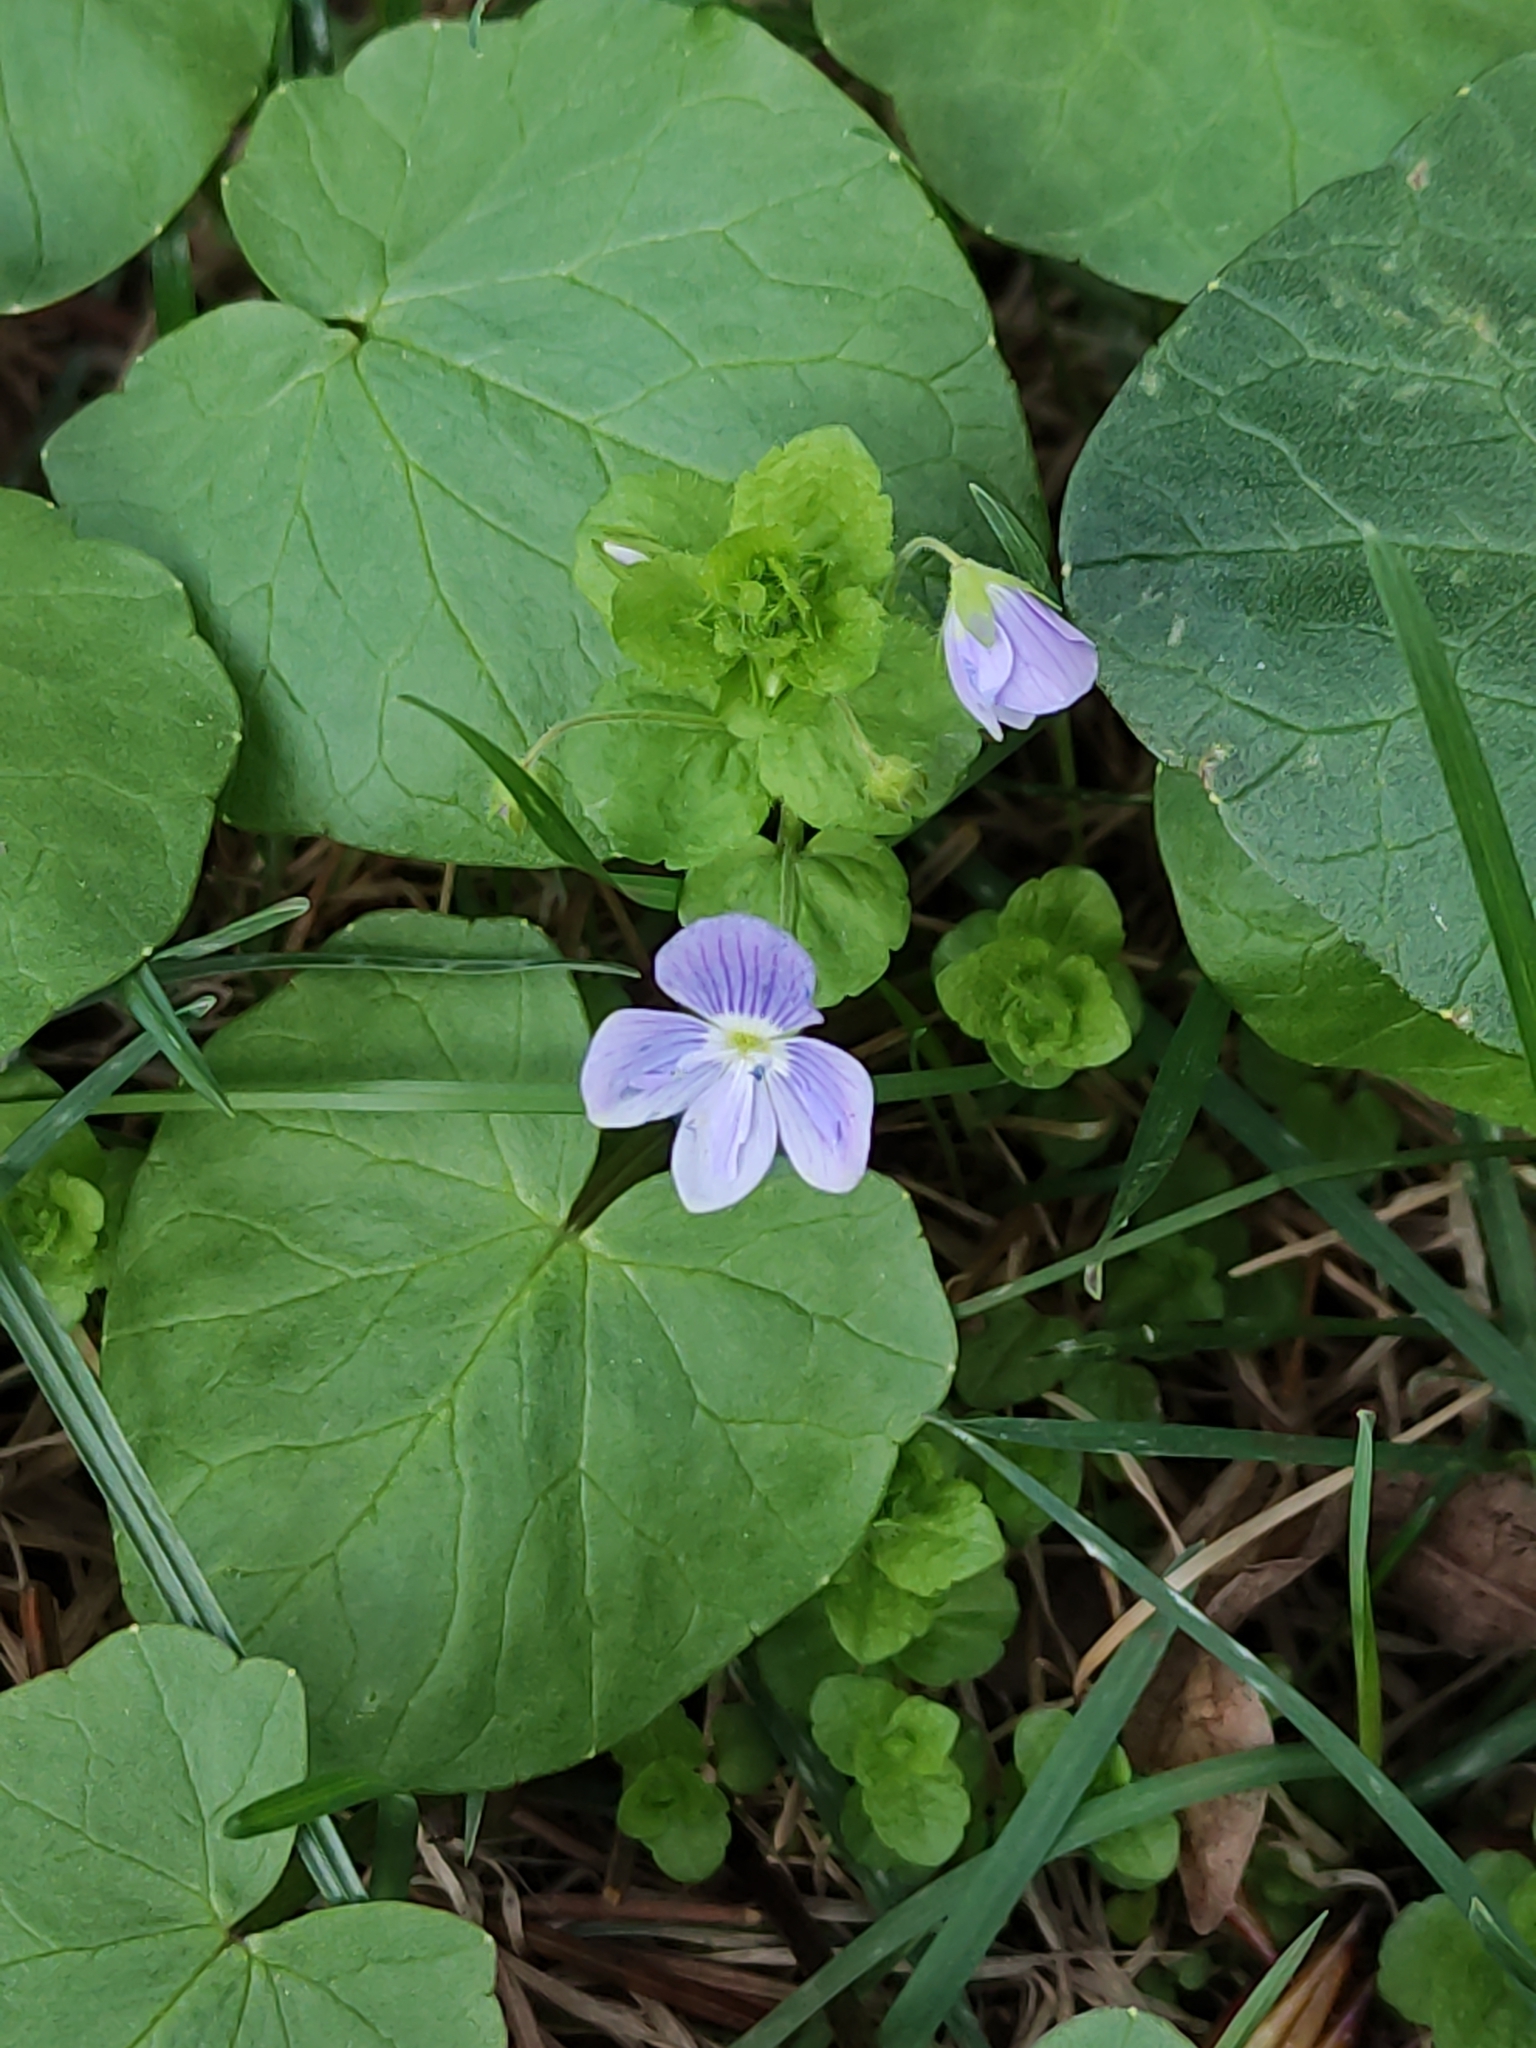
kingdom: Plantae
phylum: Tracheophyta
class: Magnoliopsida
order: Lamiales
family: Plantaginaceae
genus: Veronica
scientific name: Veronica filiformis
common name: Slender speedwell
